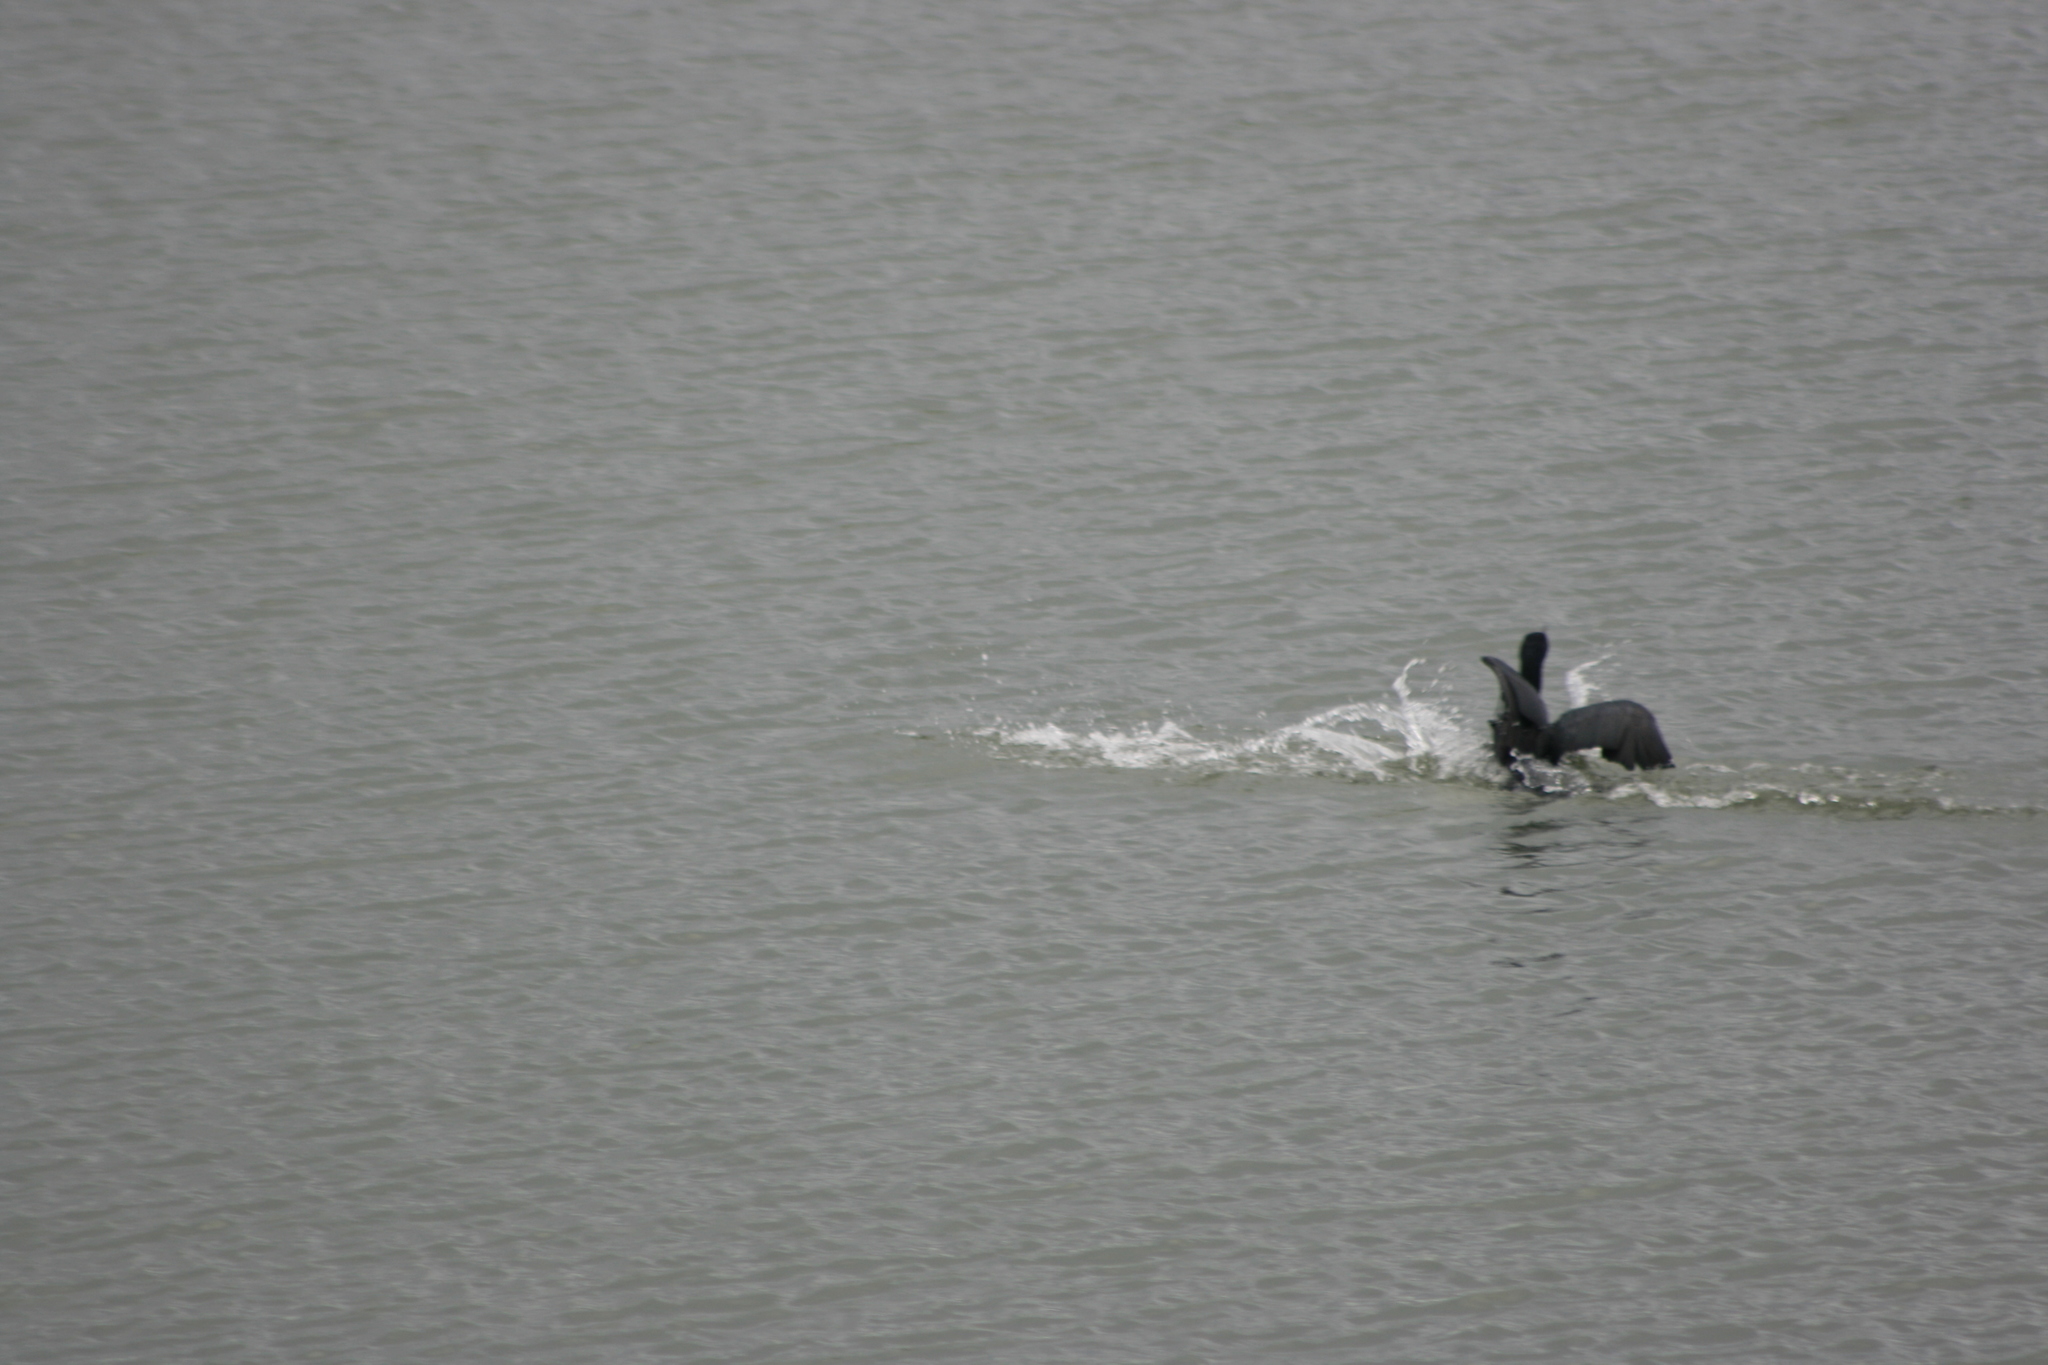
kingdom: Animalia
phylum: Chordata
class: Aves
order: Suliformes
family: Phalacrocoracidae
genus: Phalacrocorax
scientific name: Phalacrocorax auritus
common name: Double-crested cormorant
